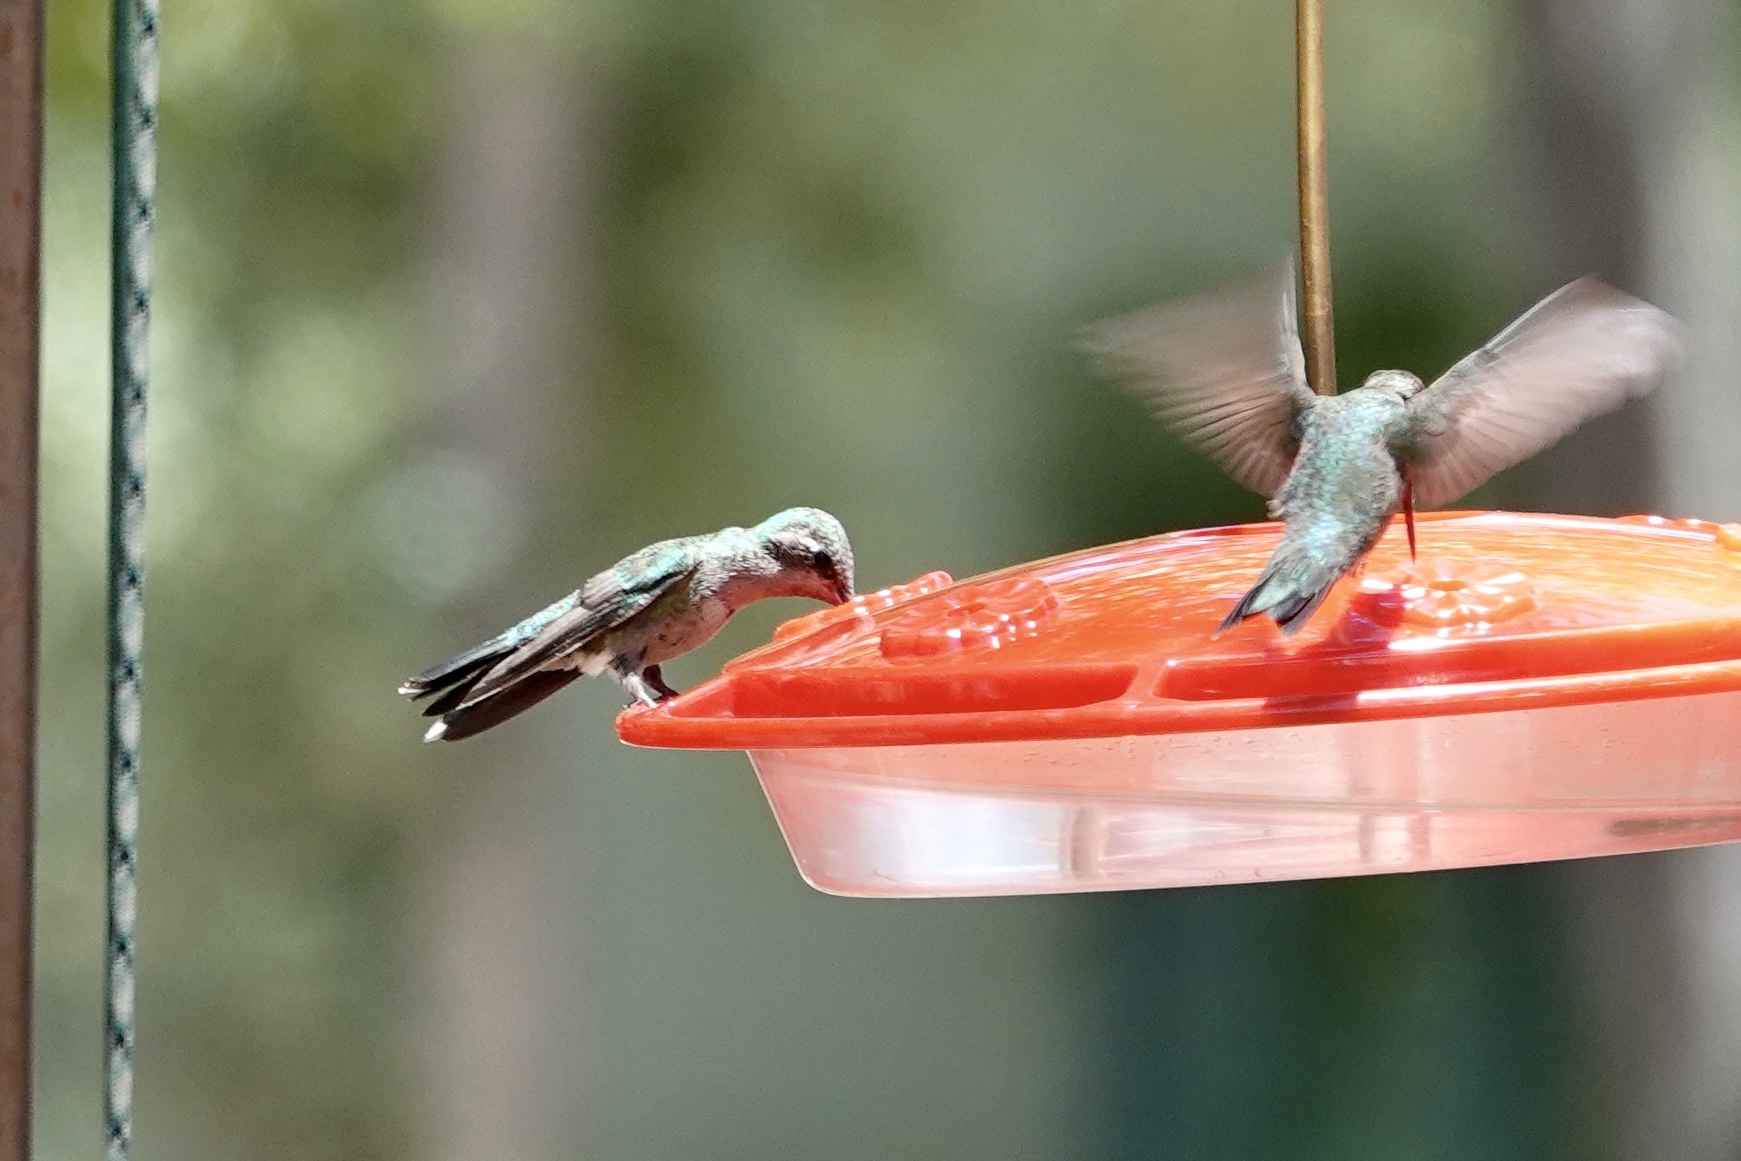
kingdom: Animalia
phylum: Chordata
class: Aves
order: Apodiformes
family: Trochilidae
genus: Cynanthus
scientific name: Cynanthus latirostris
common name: Broad-billed hummingbird
